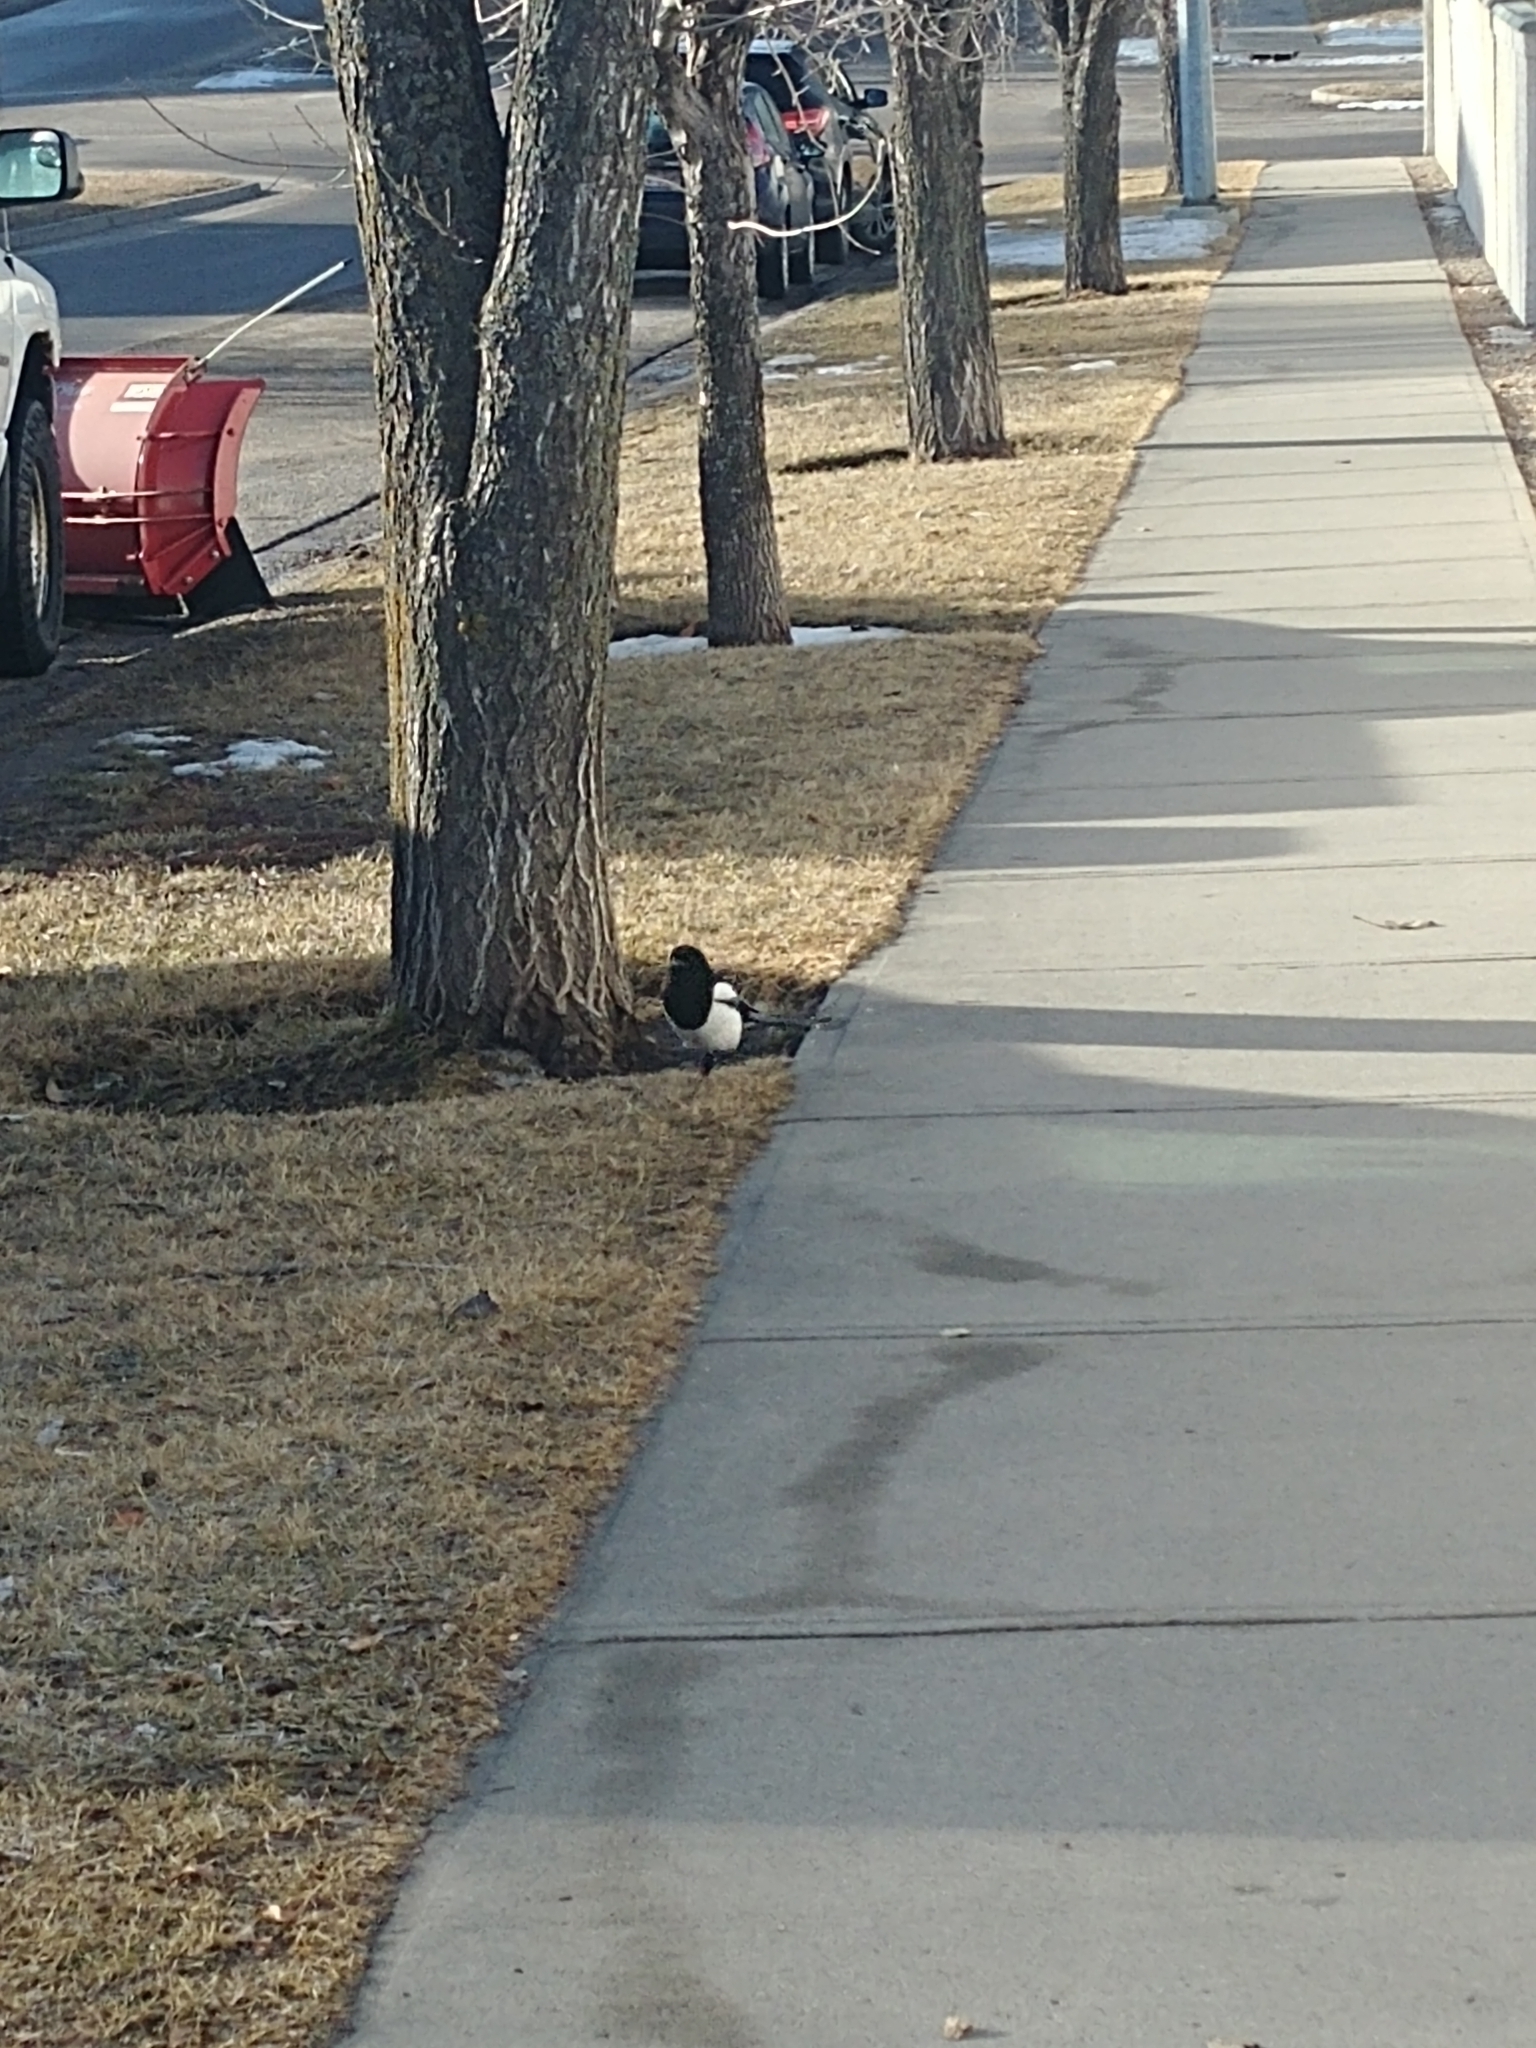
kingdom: Animalia
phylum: Chordata
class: Aves
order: Passeriformes
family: Corvidae
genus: Pica
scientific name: Pica hudsonia
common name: Black-billed magpie
